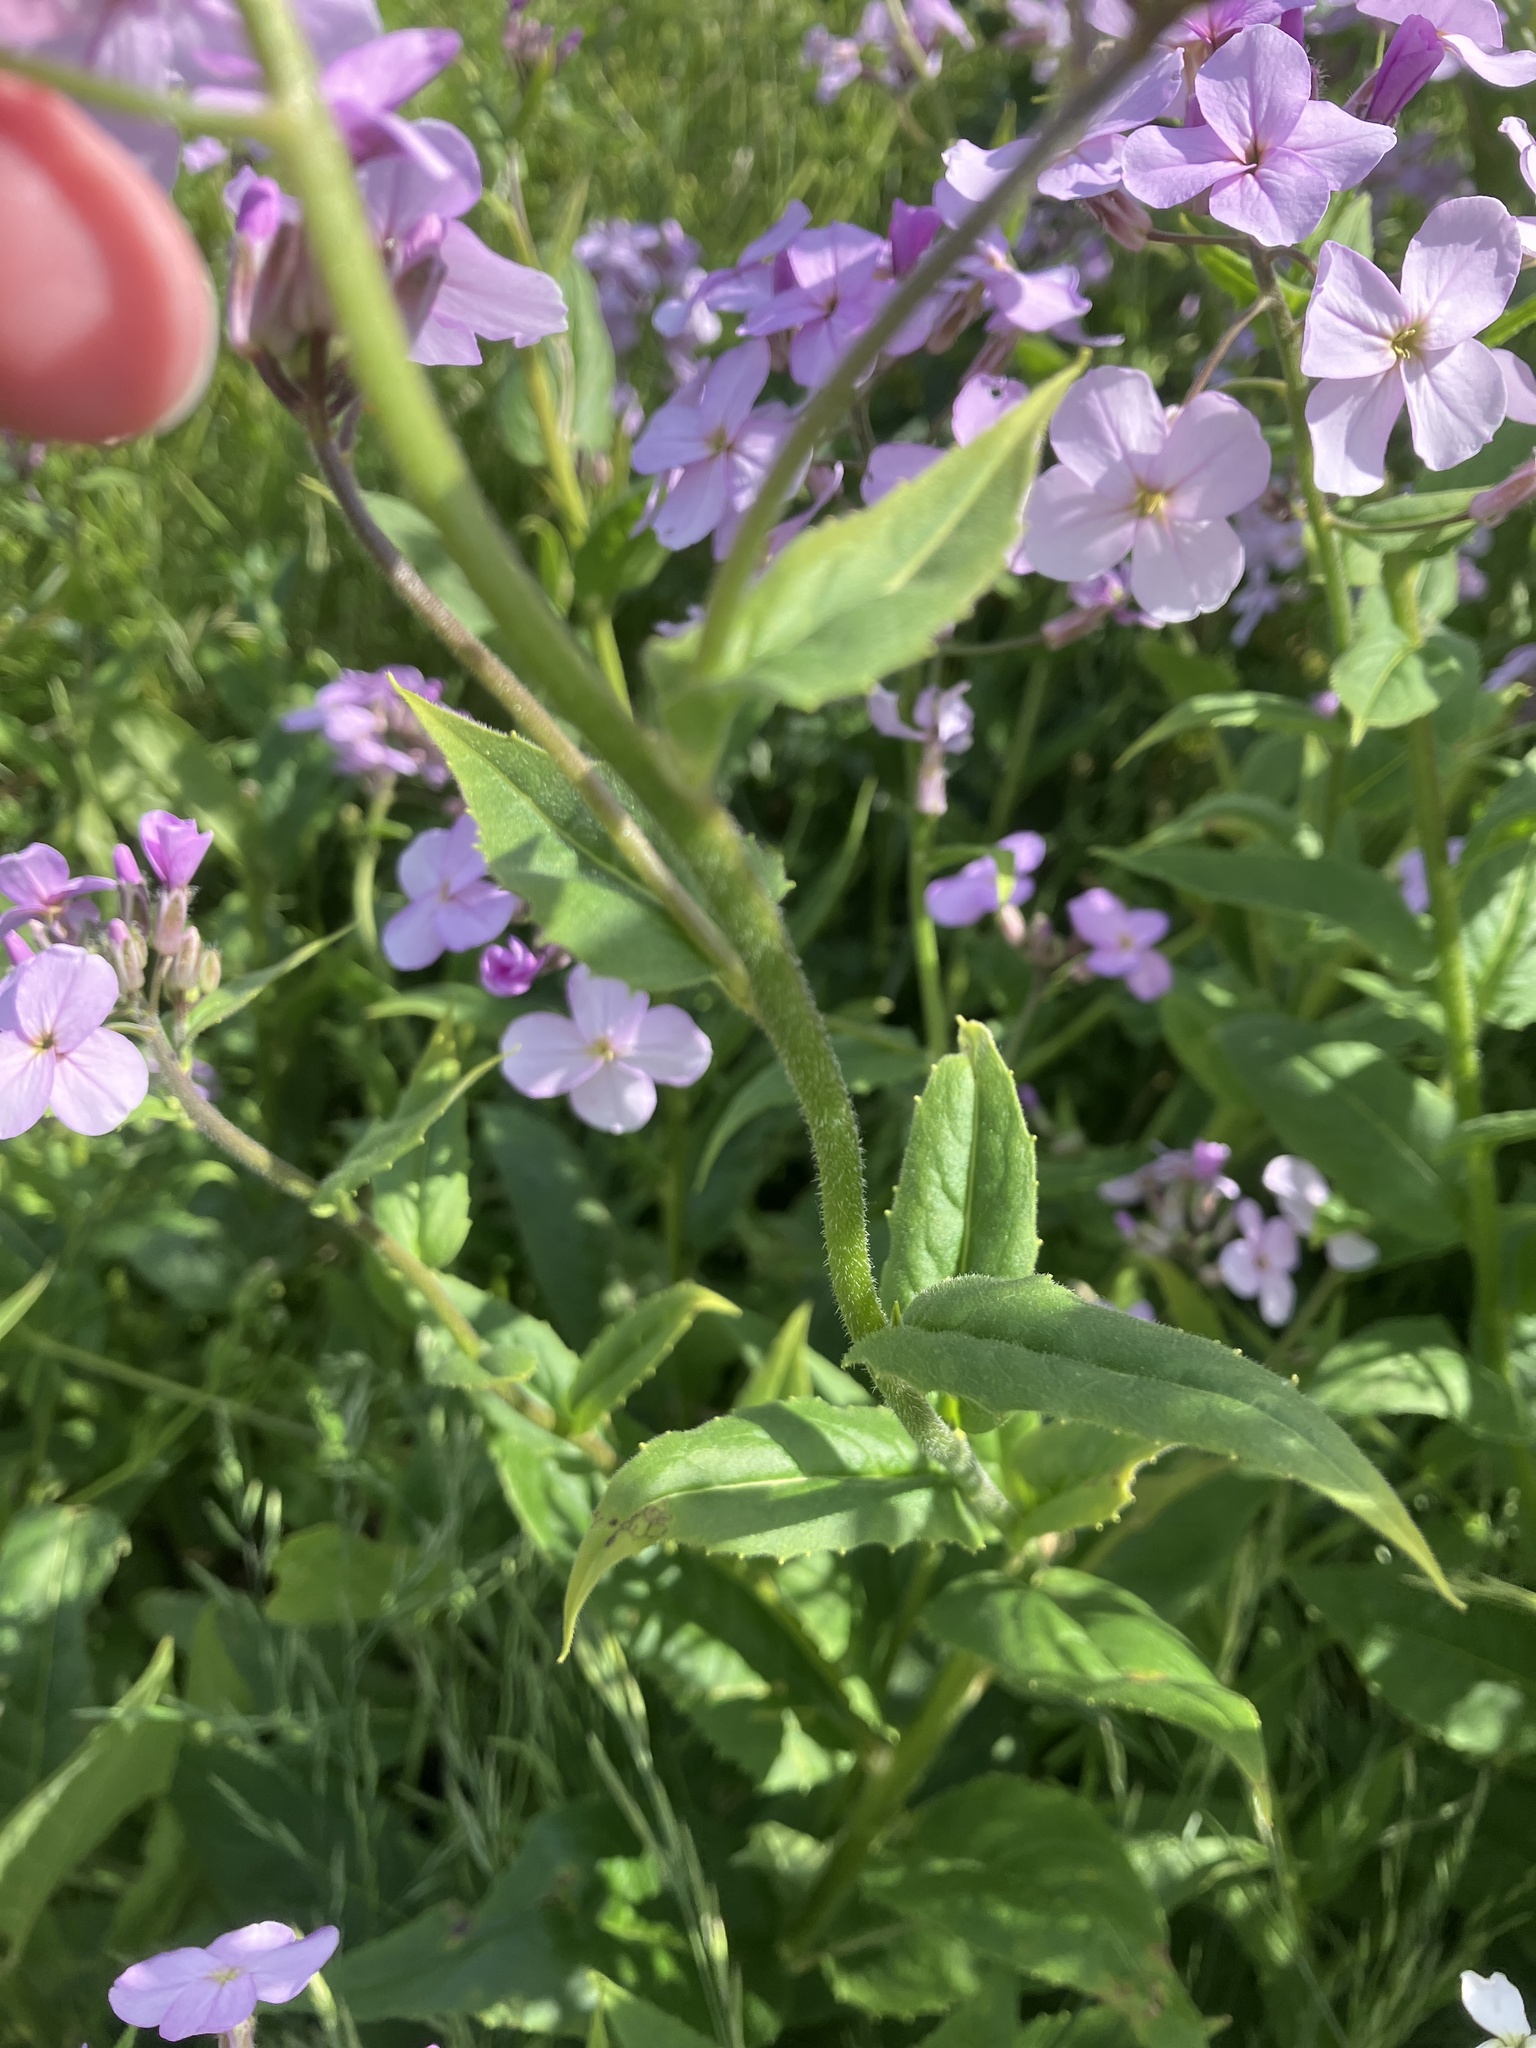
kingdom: Plantae
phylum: Tracheophyta
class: Magnoliopsida
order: Brassicales
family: Brassicaceae
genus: Hesperis
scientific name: Hesperis matronalis
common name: Dame's-violet
